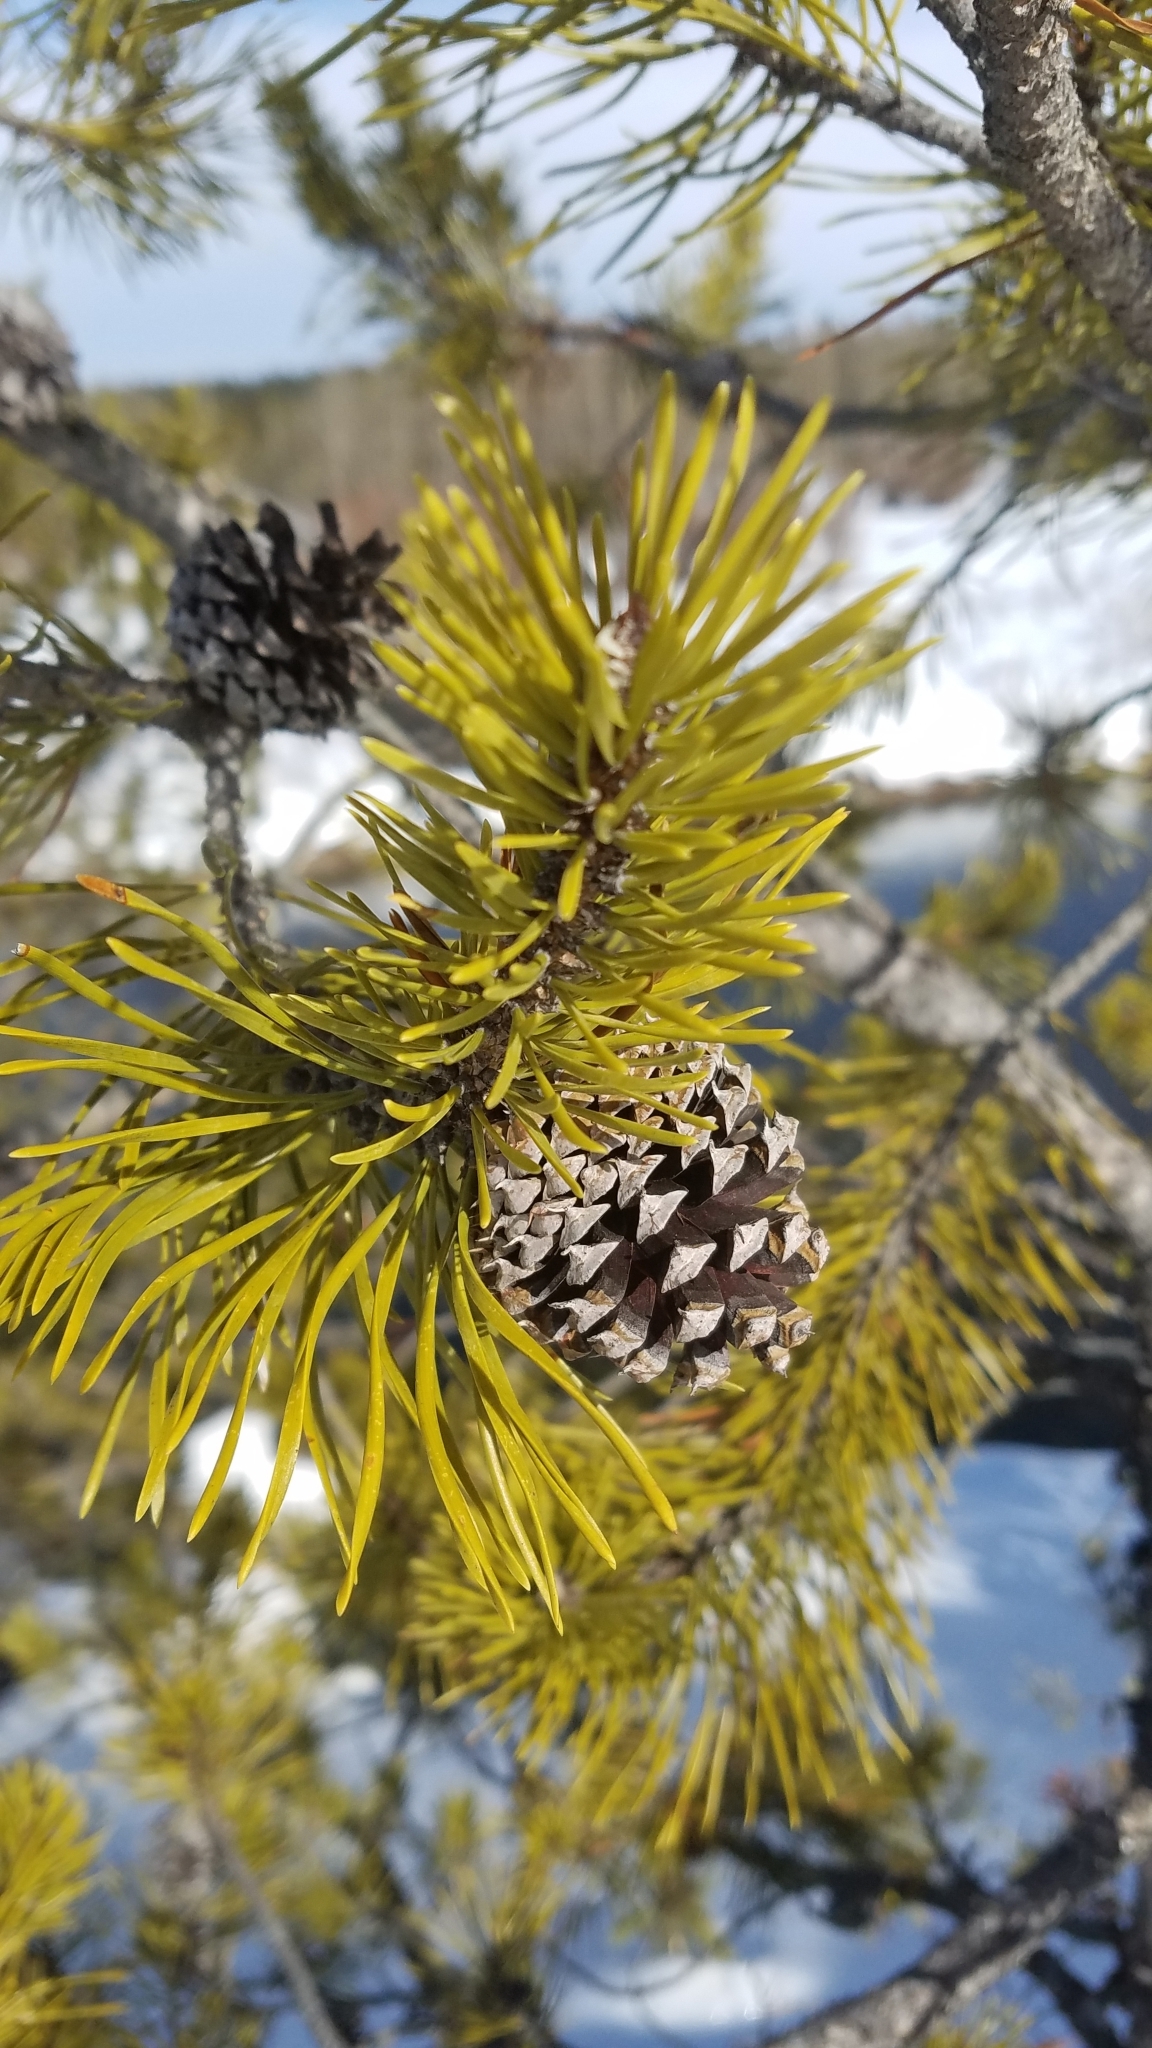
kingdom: Plantae
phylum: Tracheophyta
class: Pinopsida
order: Pinales
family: Pinaceae
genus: Pinus
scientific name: Pinus contorta
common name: Lodgepole pine
